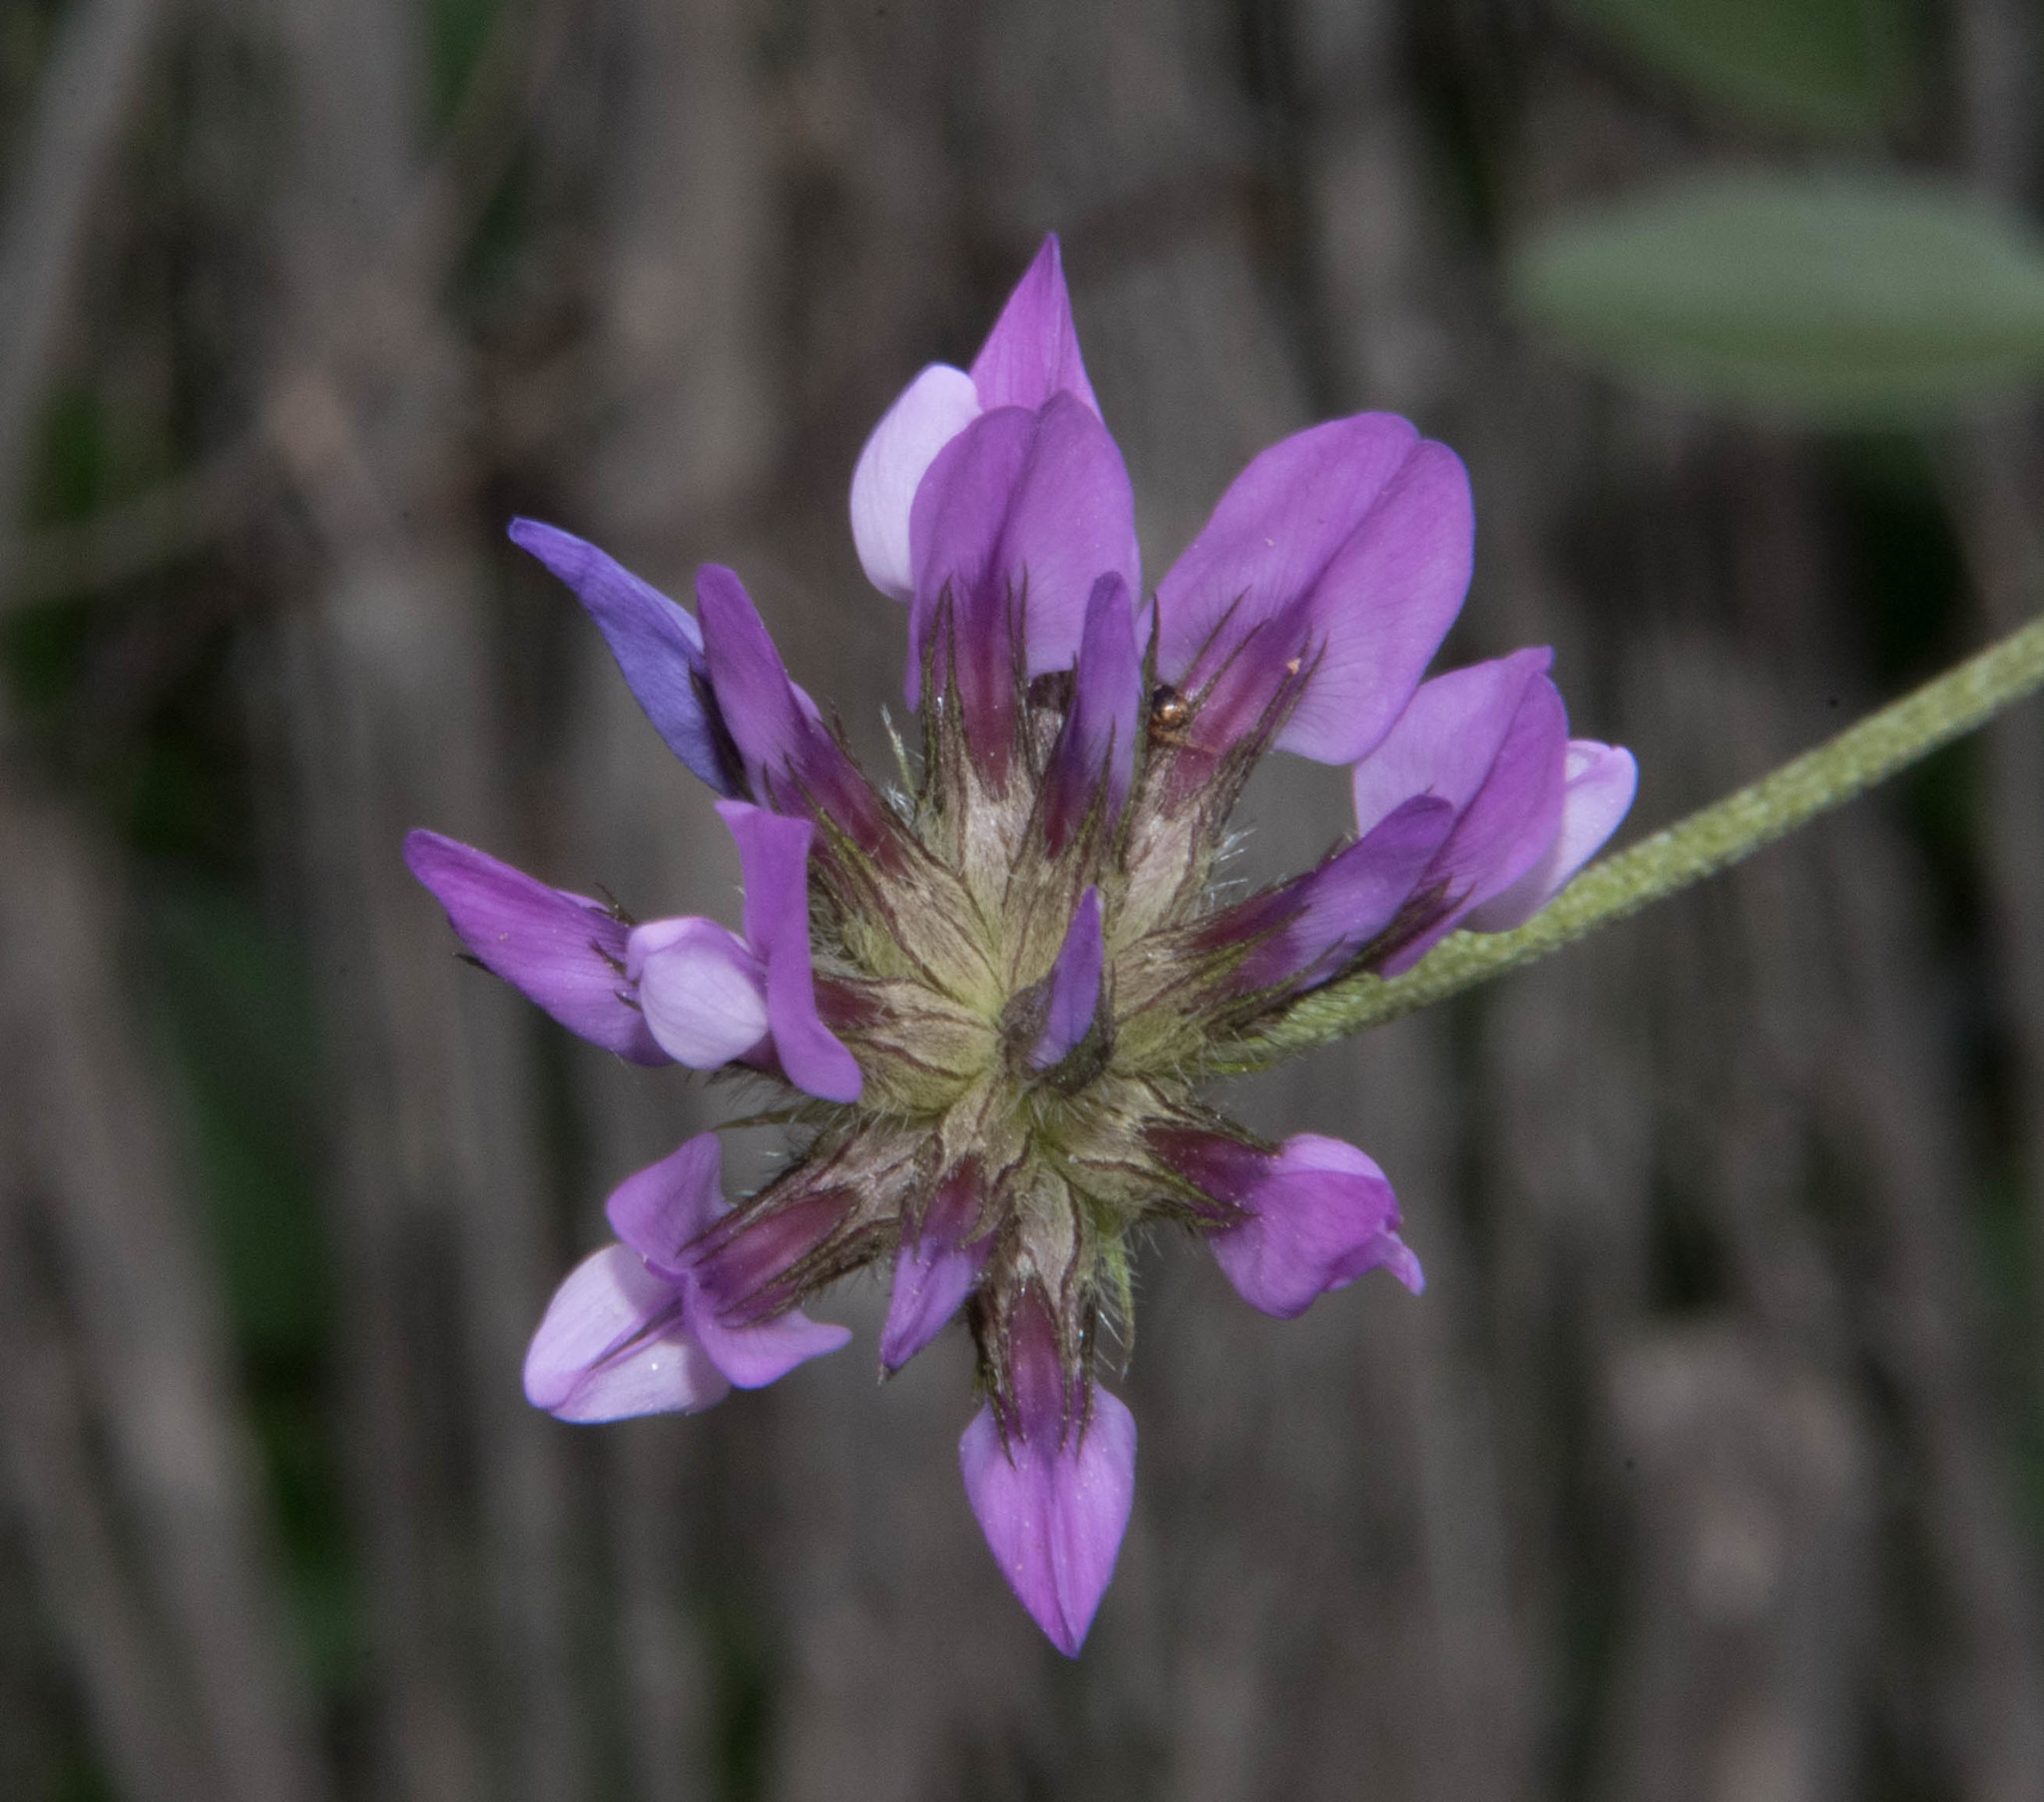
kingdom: Plantae
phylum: Tracheophyta
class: Magnoliopsida
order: Fabales
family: Fabaceae
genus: Bituminaria
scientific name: Bituminaria bituminosa
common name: Arabian pea
